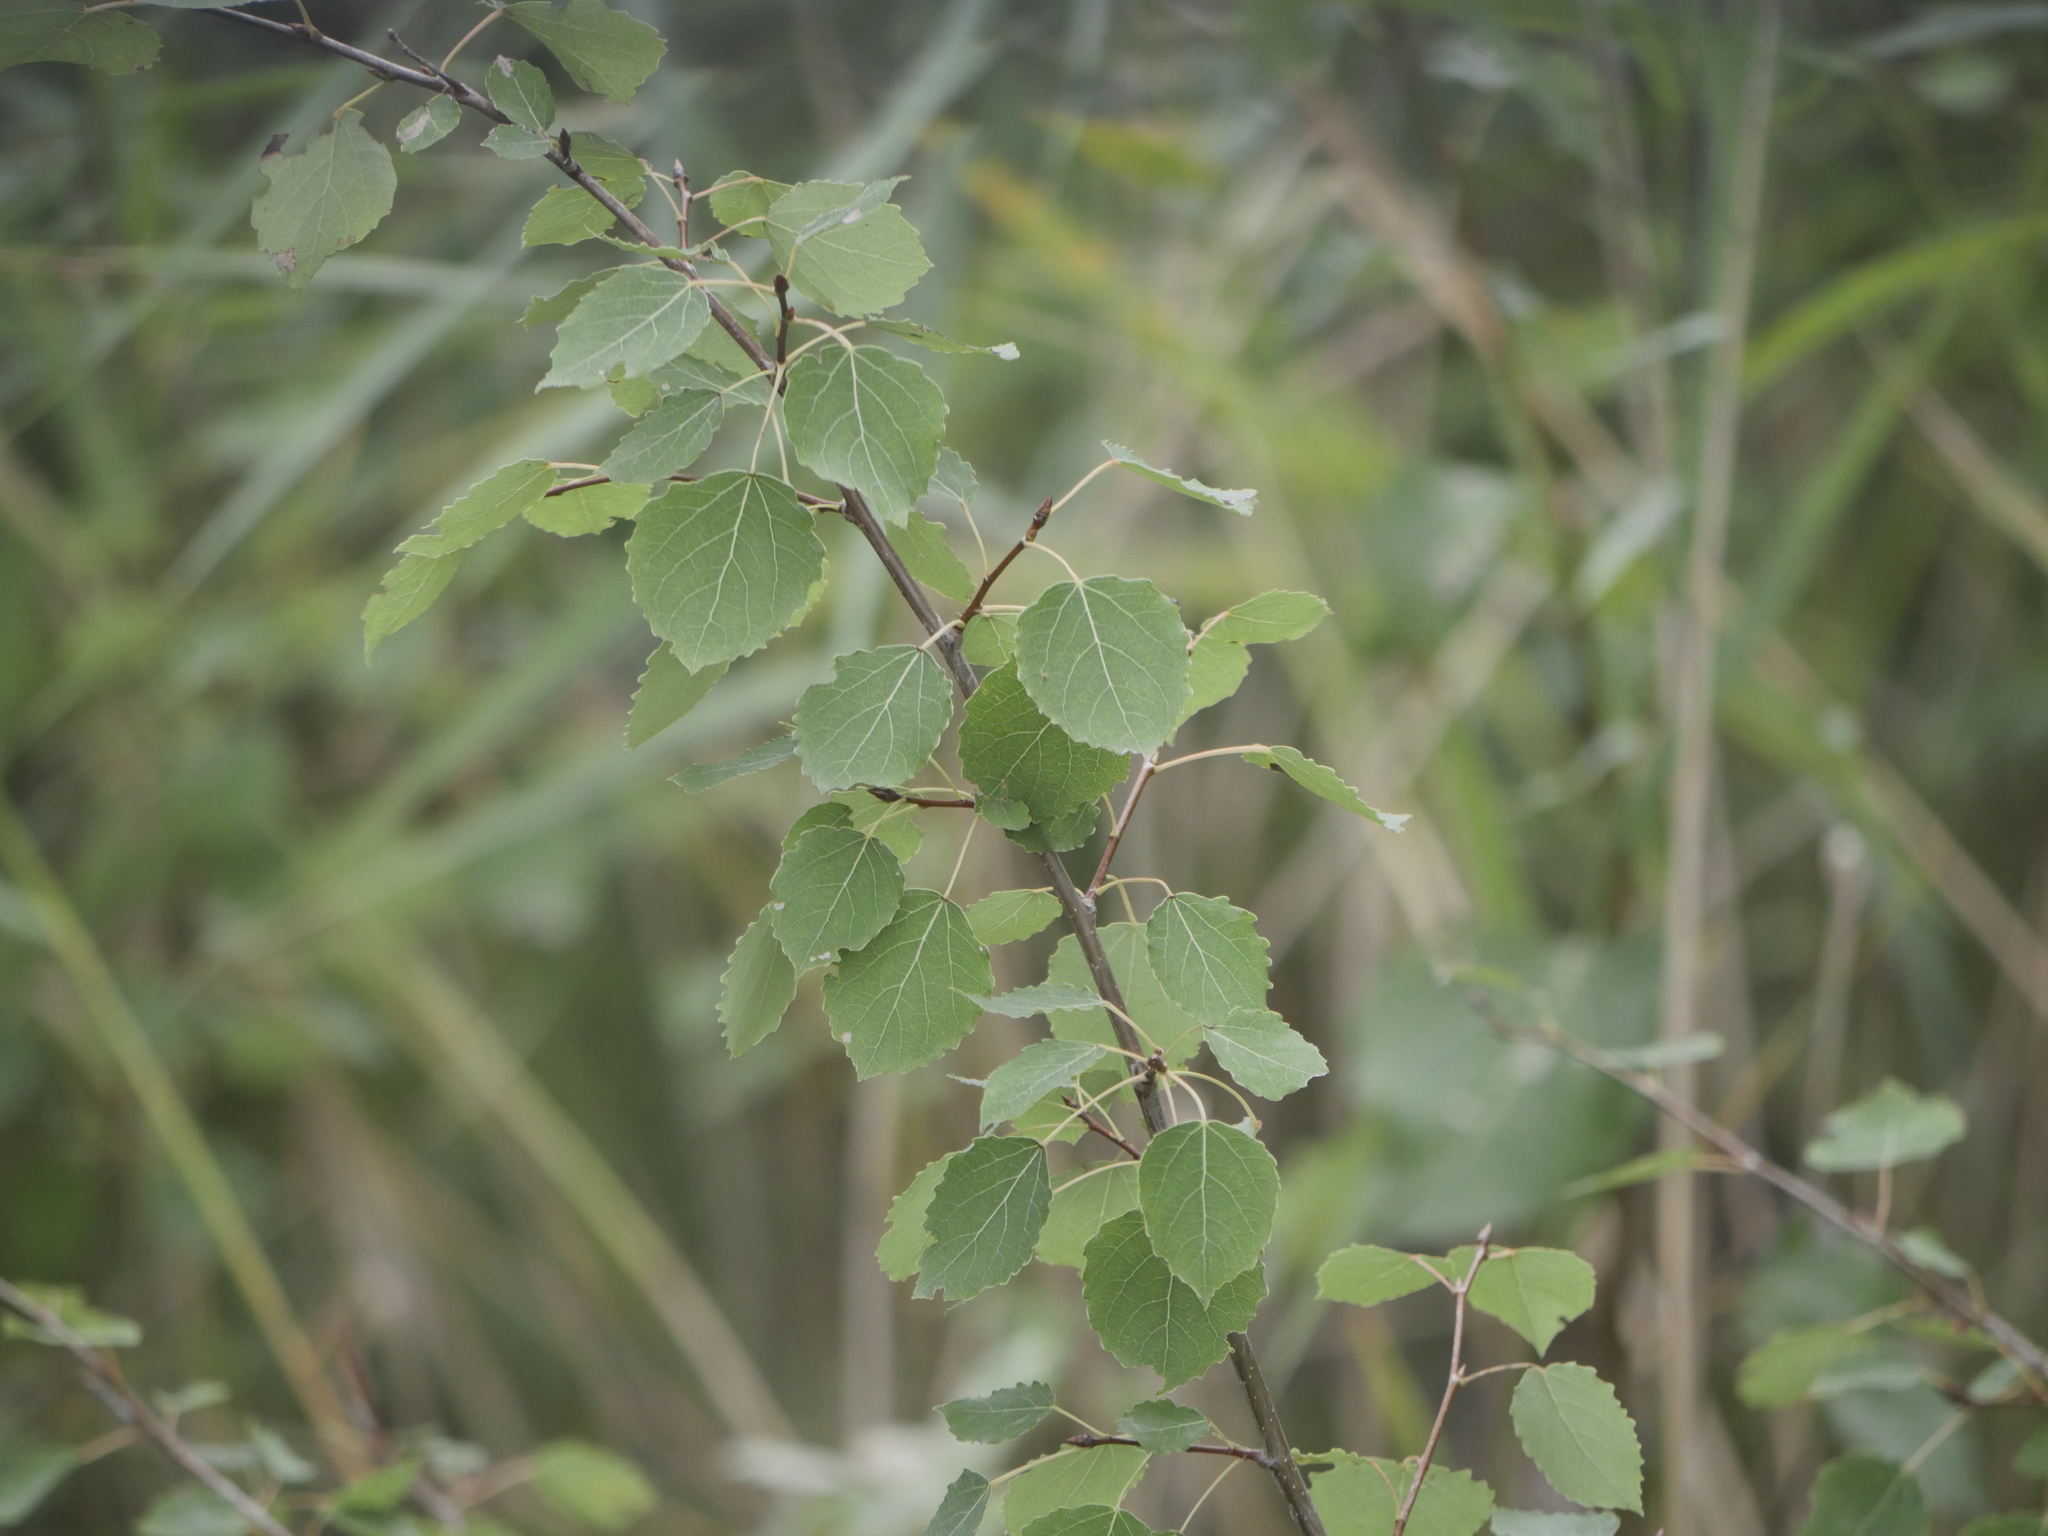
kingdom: Plantae
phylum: Tracheophyta
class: Magnoliopsida
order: Malpighiales
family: Salicaceae
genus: Populus
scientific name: Populus tremula
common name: European aspen
